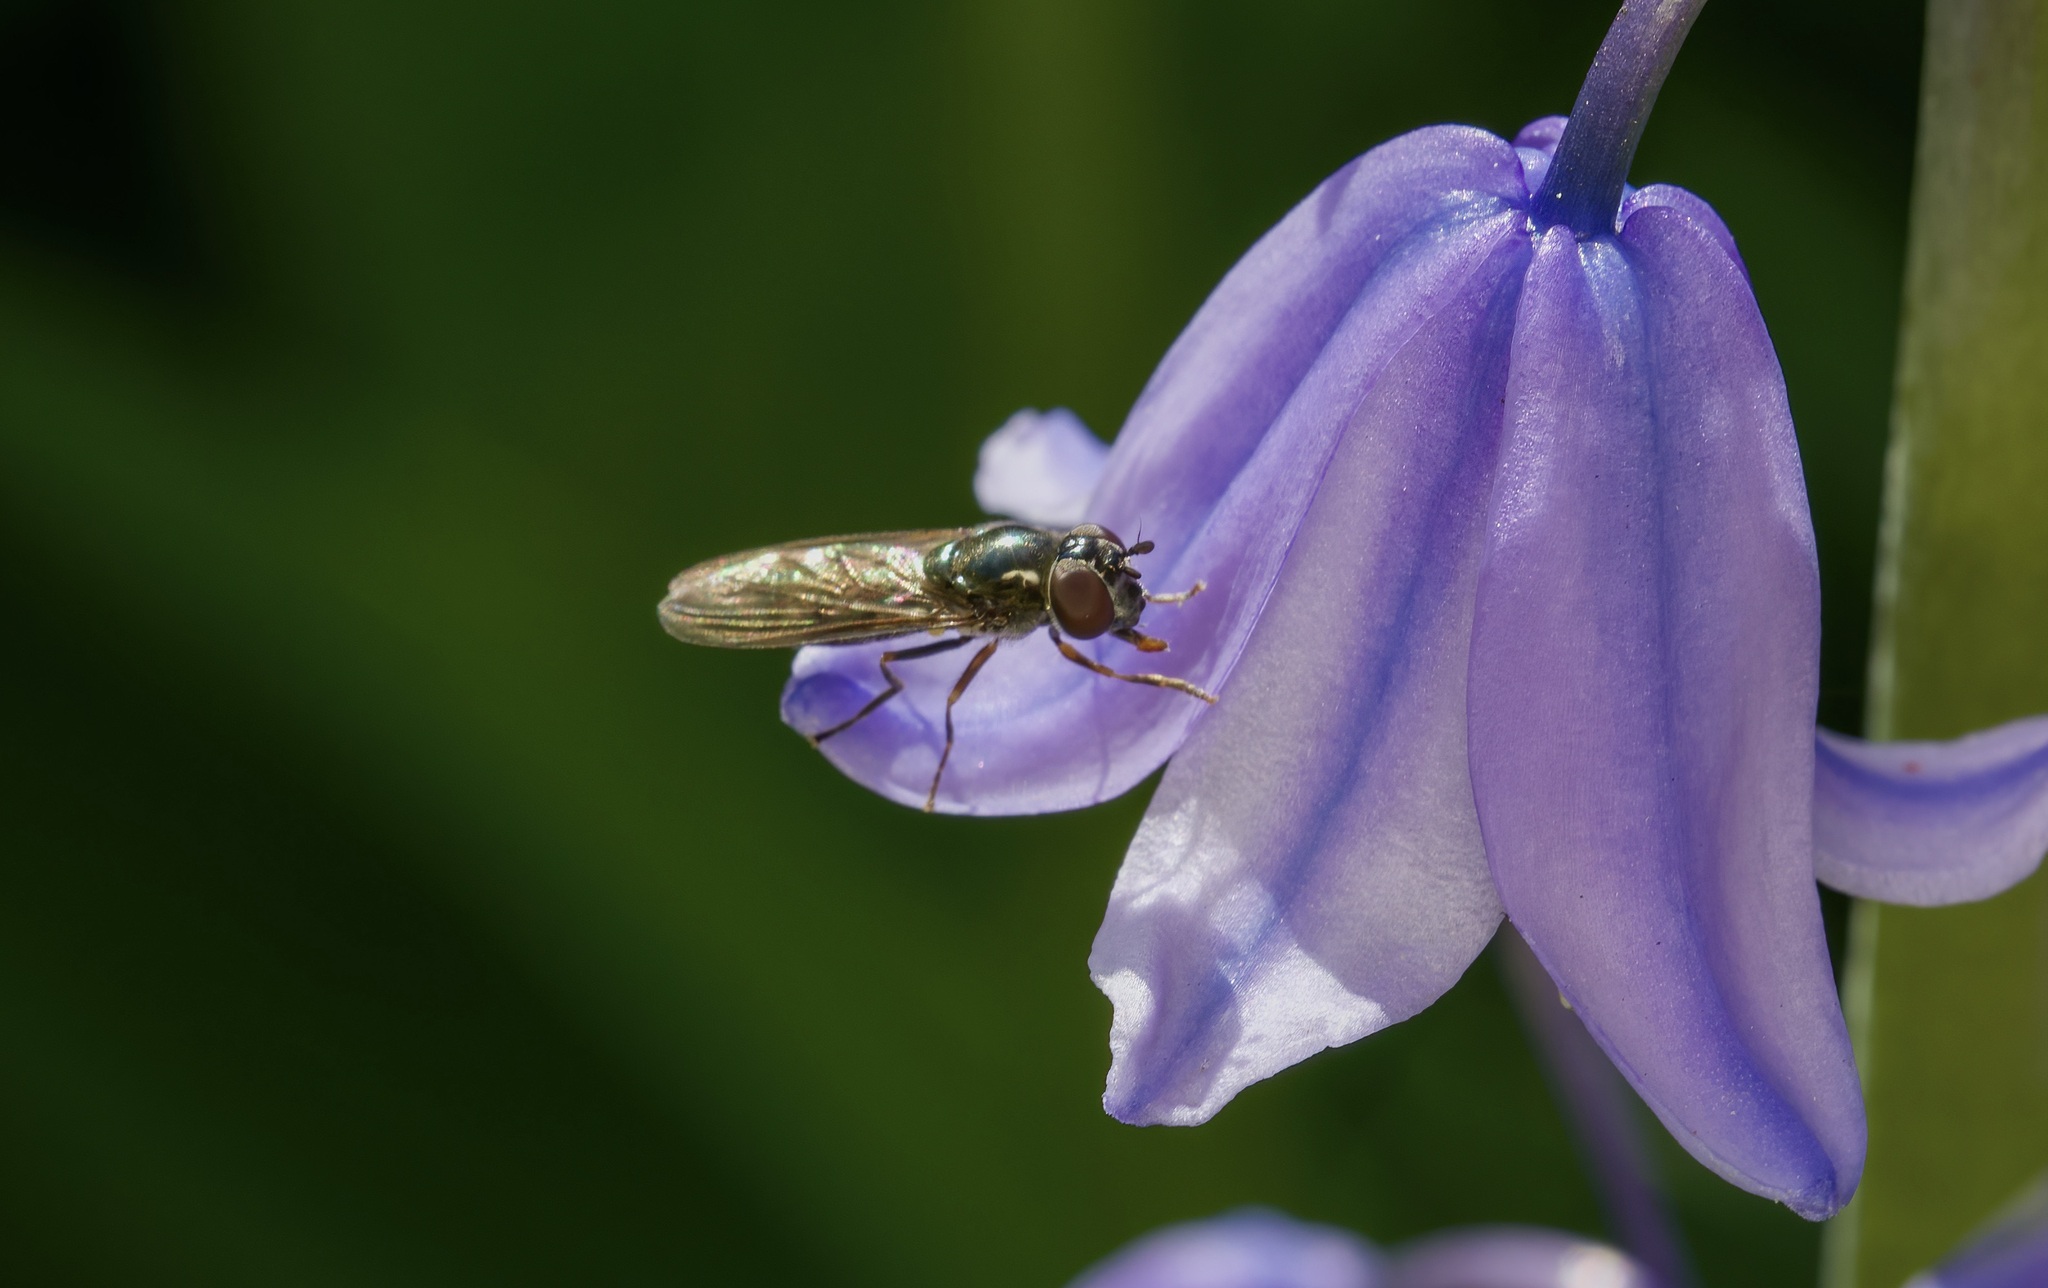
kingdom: Animalia
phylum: Arthropoda
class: Insecta
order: Diptera
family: Syrphidae
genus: Platycheirus
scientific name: Platycheirus albimanus
